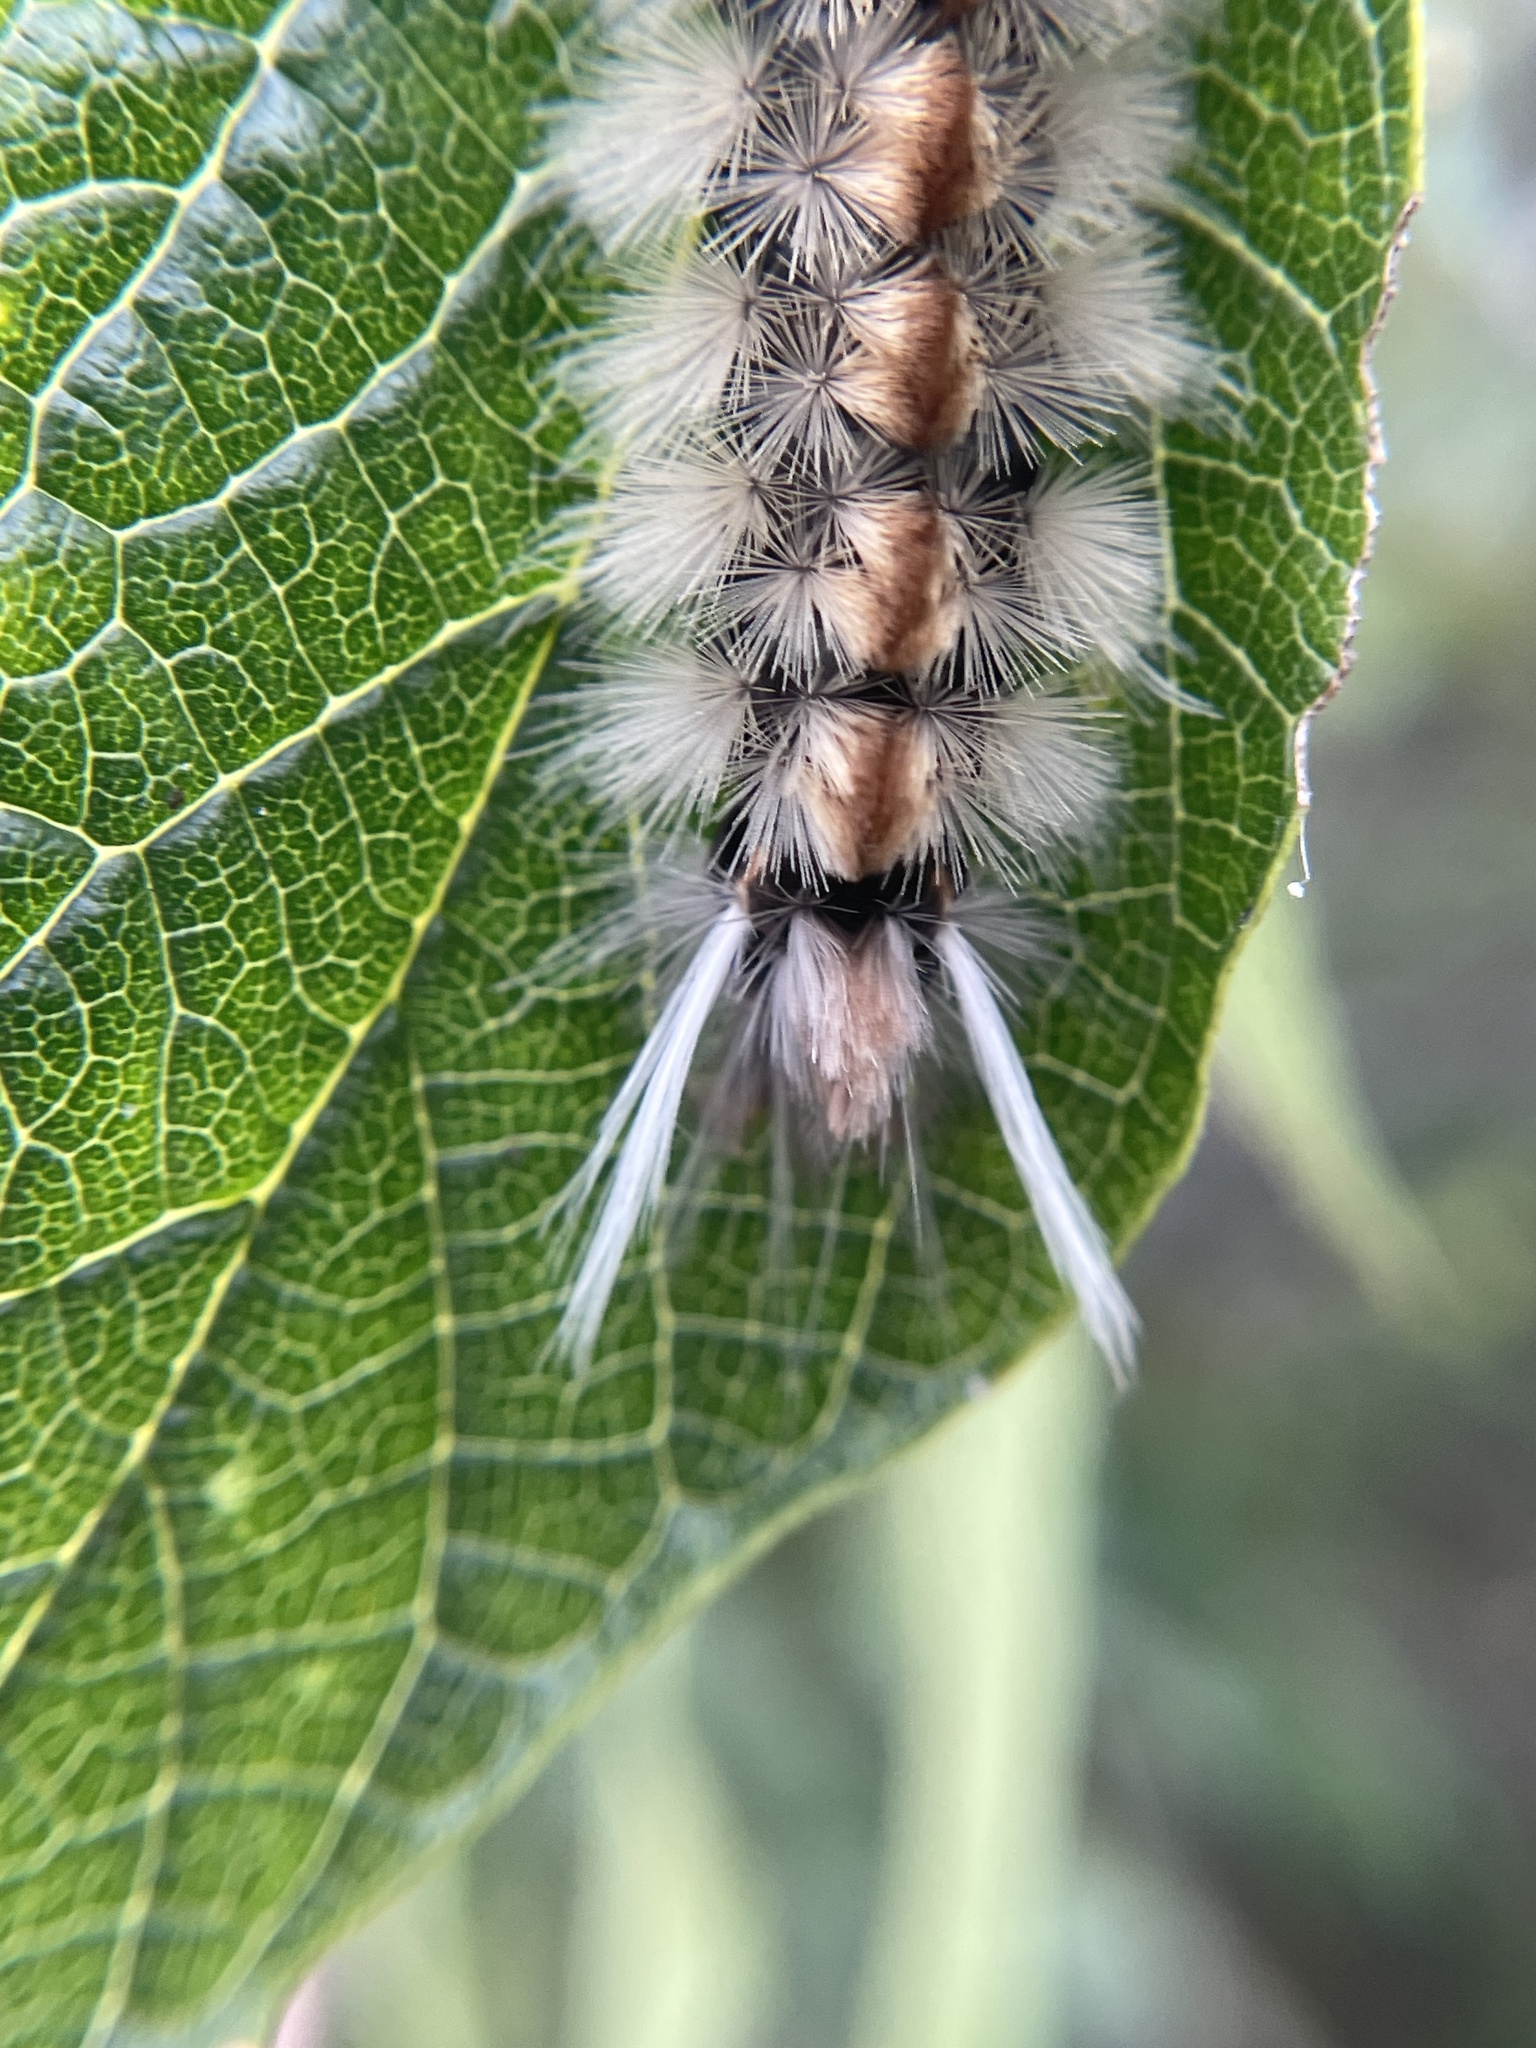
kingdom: Animalia
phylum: Arthropoda
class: Insecta
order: Lepidoptera
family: Erebidae
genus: Halysidota
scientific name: Halysidota schausi
